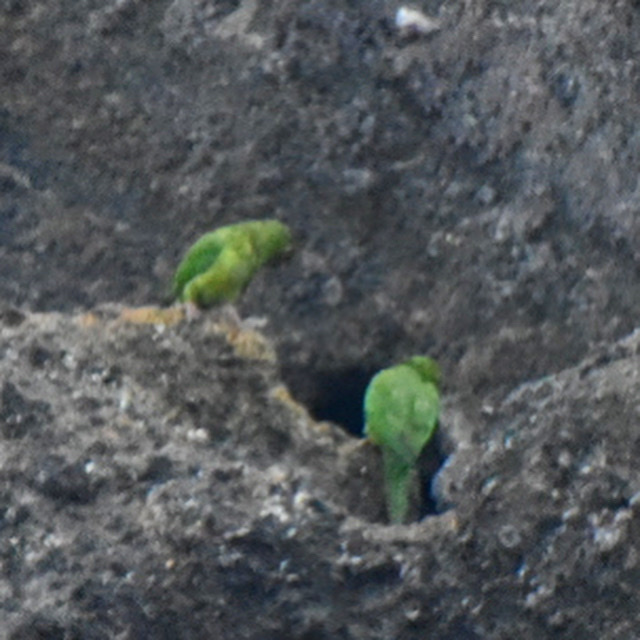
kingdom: Animalia
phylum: Chordata
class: Aves
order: Psittaciformes
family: Psittacidae
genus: Aratinga
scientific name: Aratinga strenua
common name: Pacific parakeet
